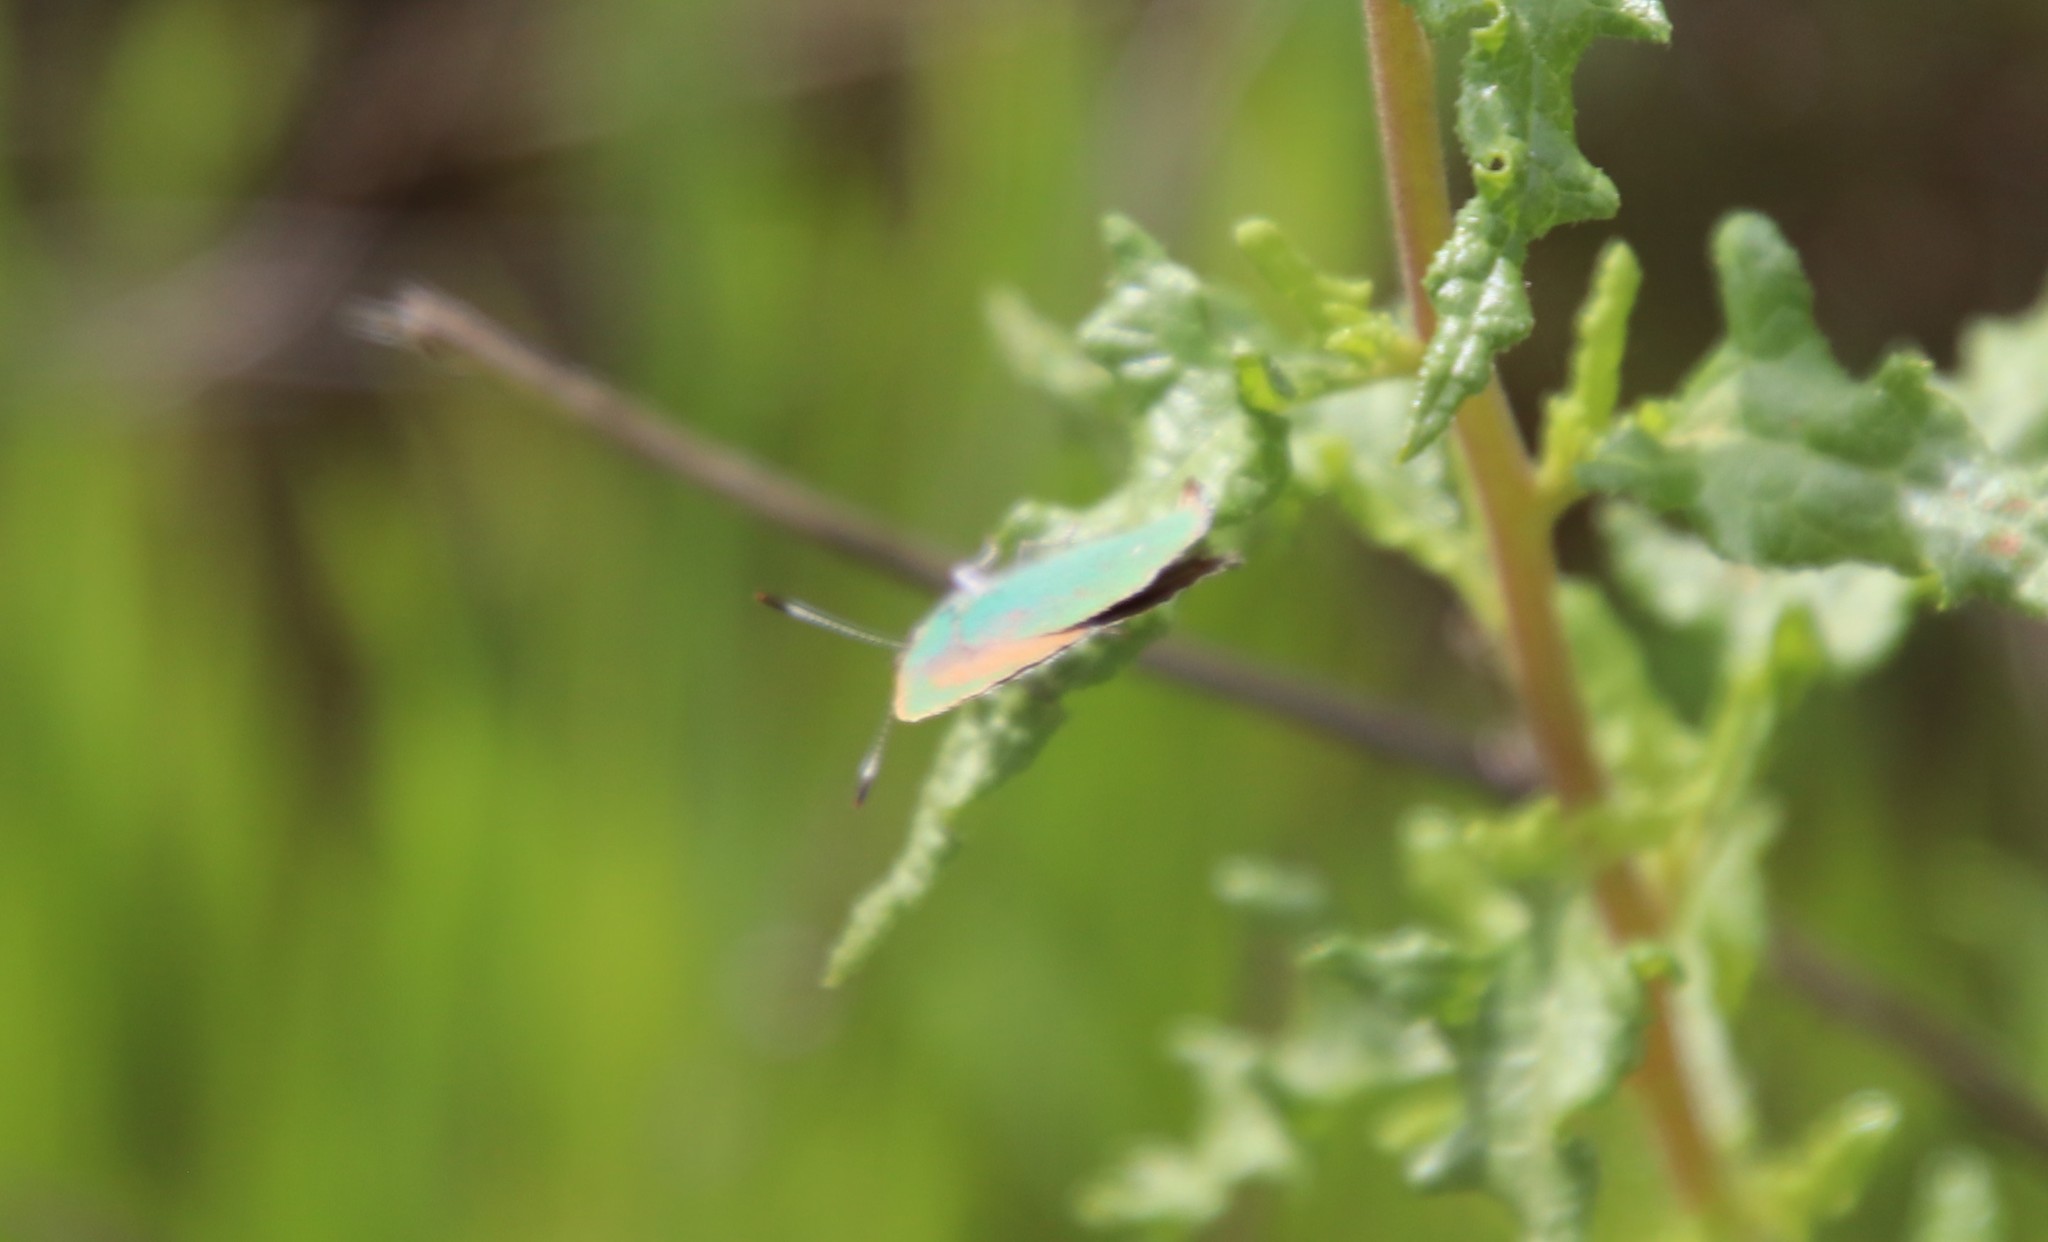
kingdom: Animalia
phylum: Arthropoda
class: Insecta
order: Lepidoptera
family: Lycaenidae
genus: Callophrys
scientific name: Callophrys dumetorum
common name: Bramble hairstreak
